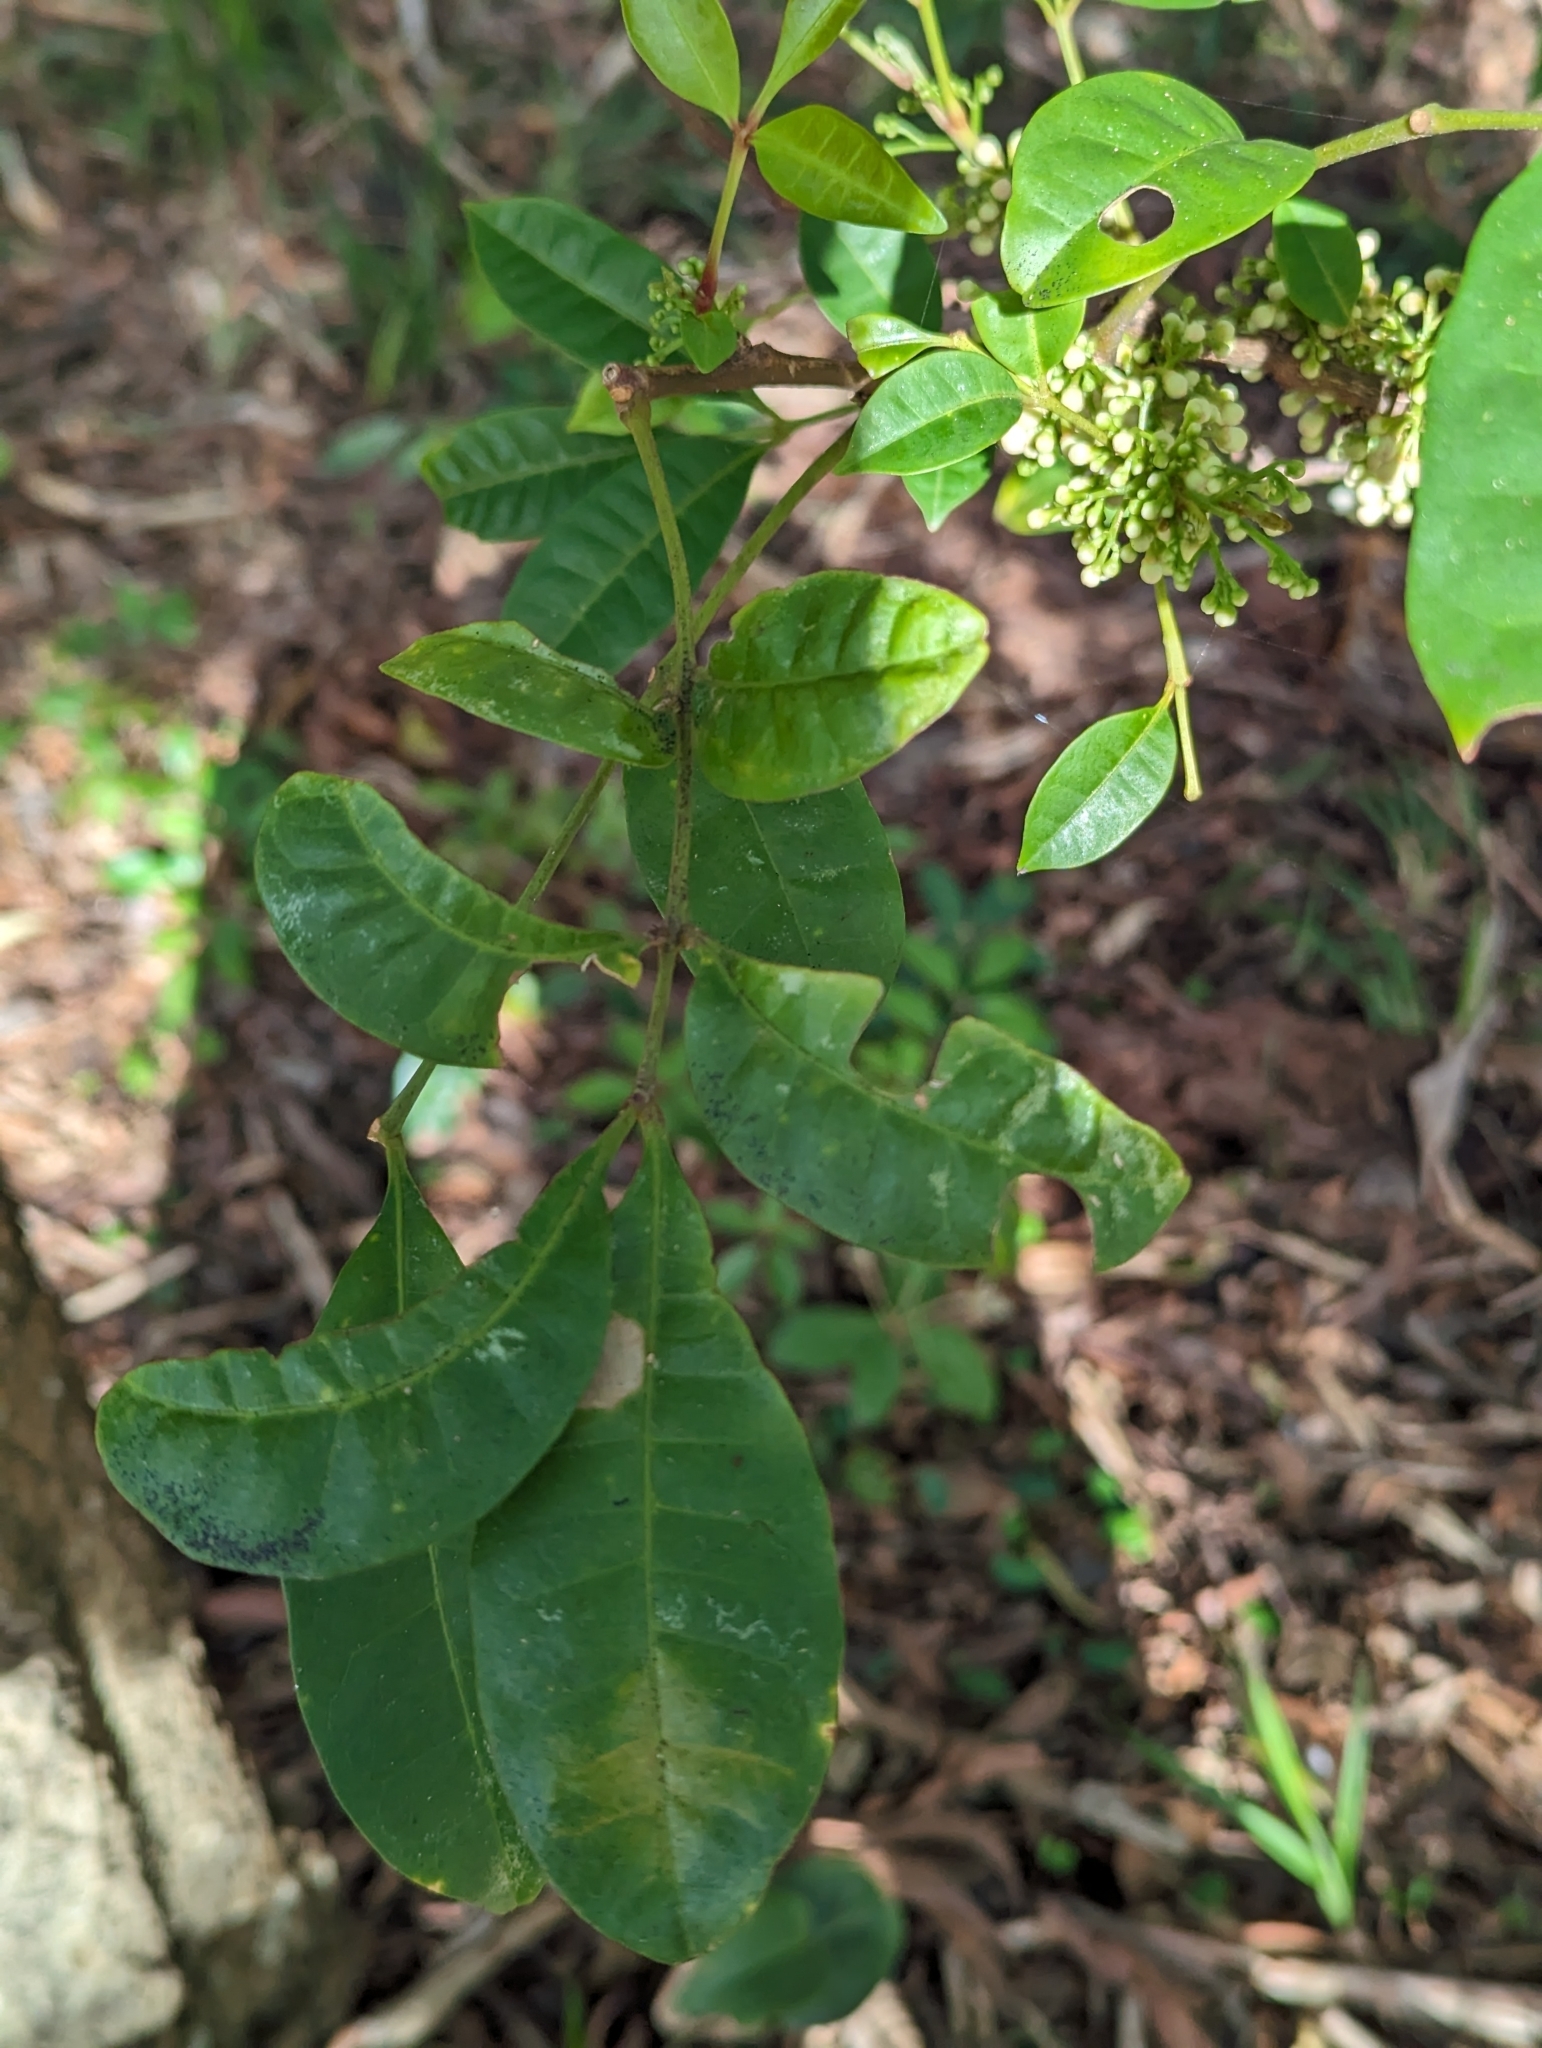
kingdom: Plantae
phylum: Tracheophyta
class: Magnoliopsida
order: Sapindales
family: Meliaceae
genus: Synoum
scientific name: Synoum glandulosum
